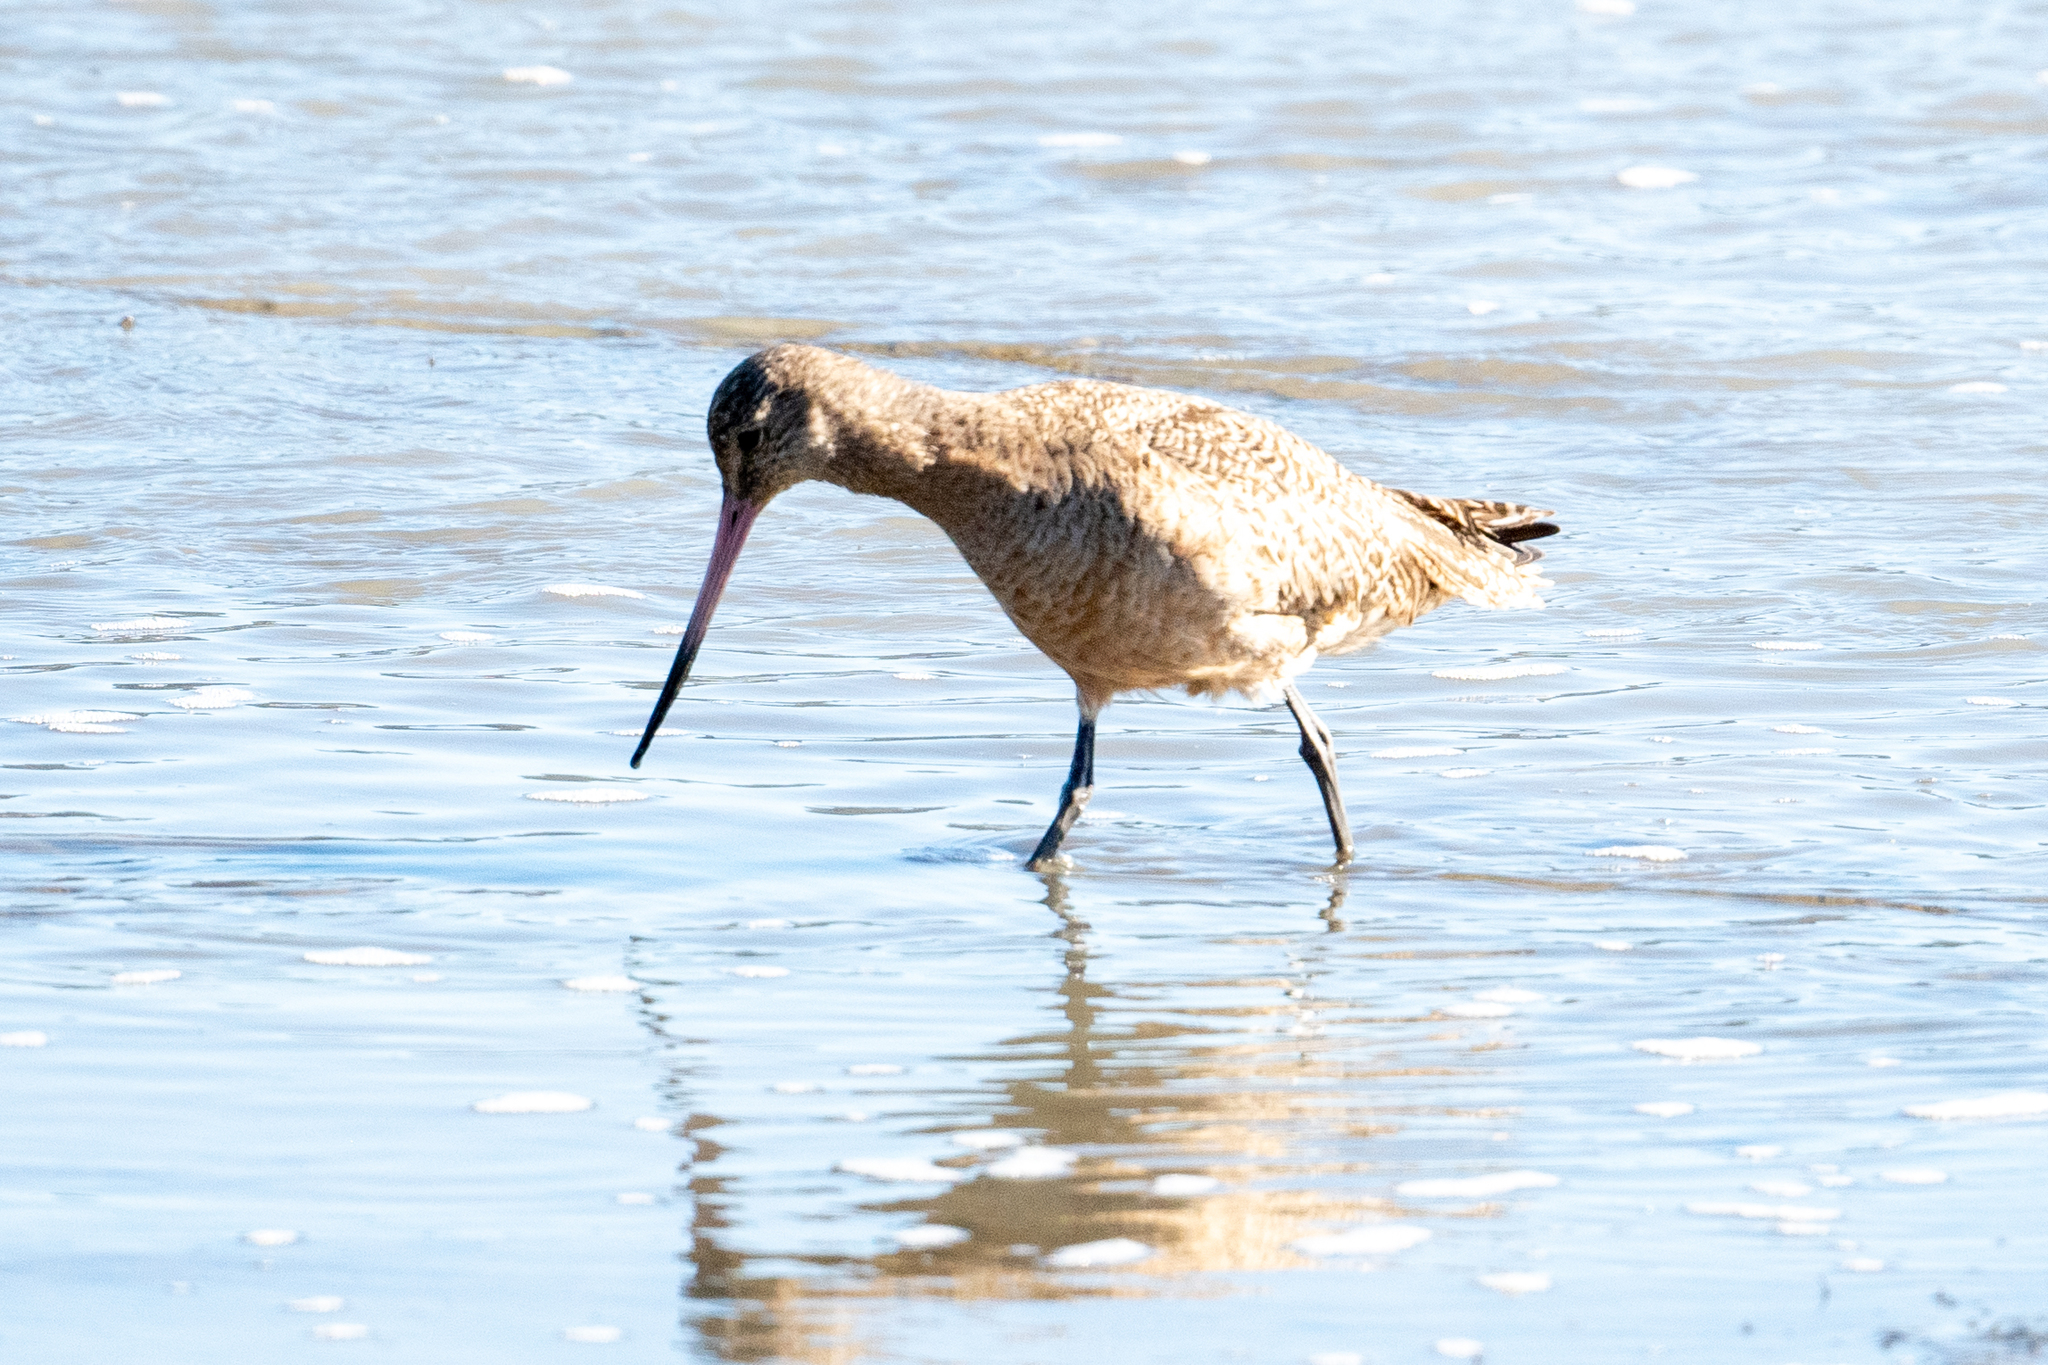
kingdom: Animalia
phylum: Chordata
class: Aves
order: Charadriiformes
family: Scolopacidae
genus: Limosa
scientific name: Limosa fedoa
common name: Marbled godwit
